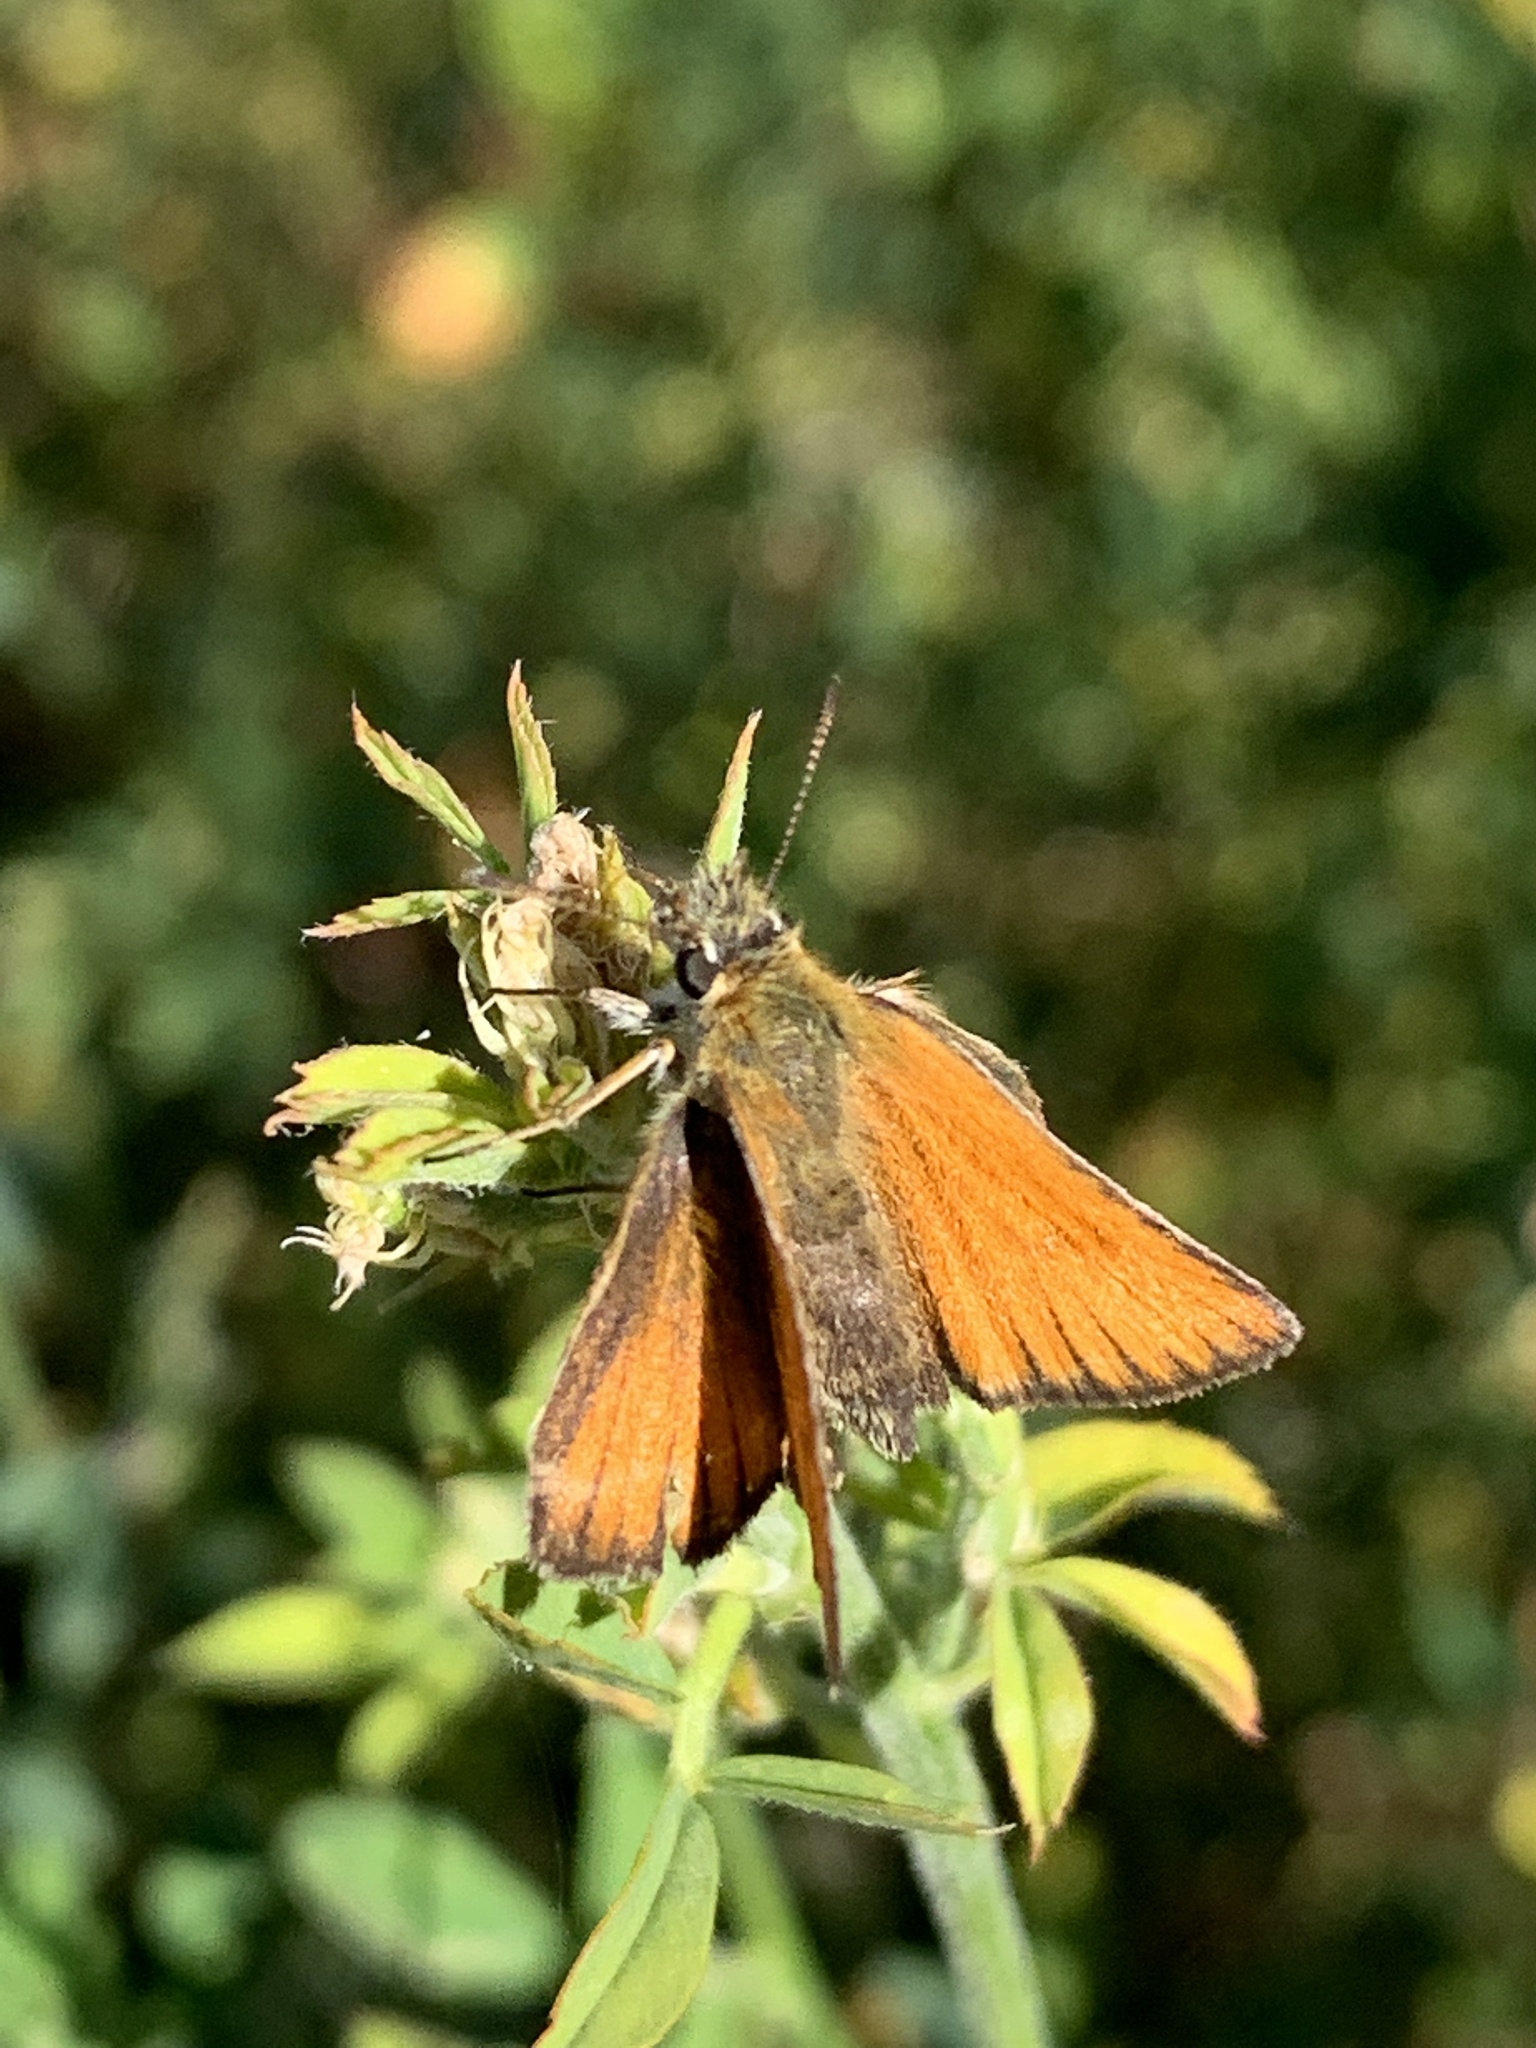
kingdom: Animalia
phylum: Arthropoda
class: Insecta
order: Lepidoptera
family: Hesperiidae
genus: Thymelicus
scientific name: Thymelicus lineola
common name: Essex skipper
